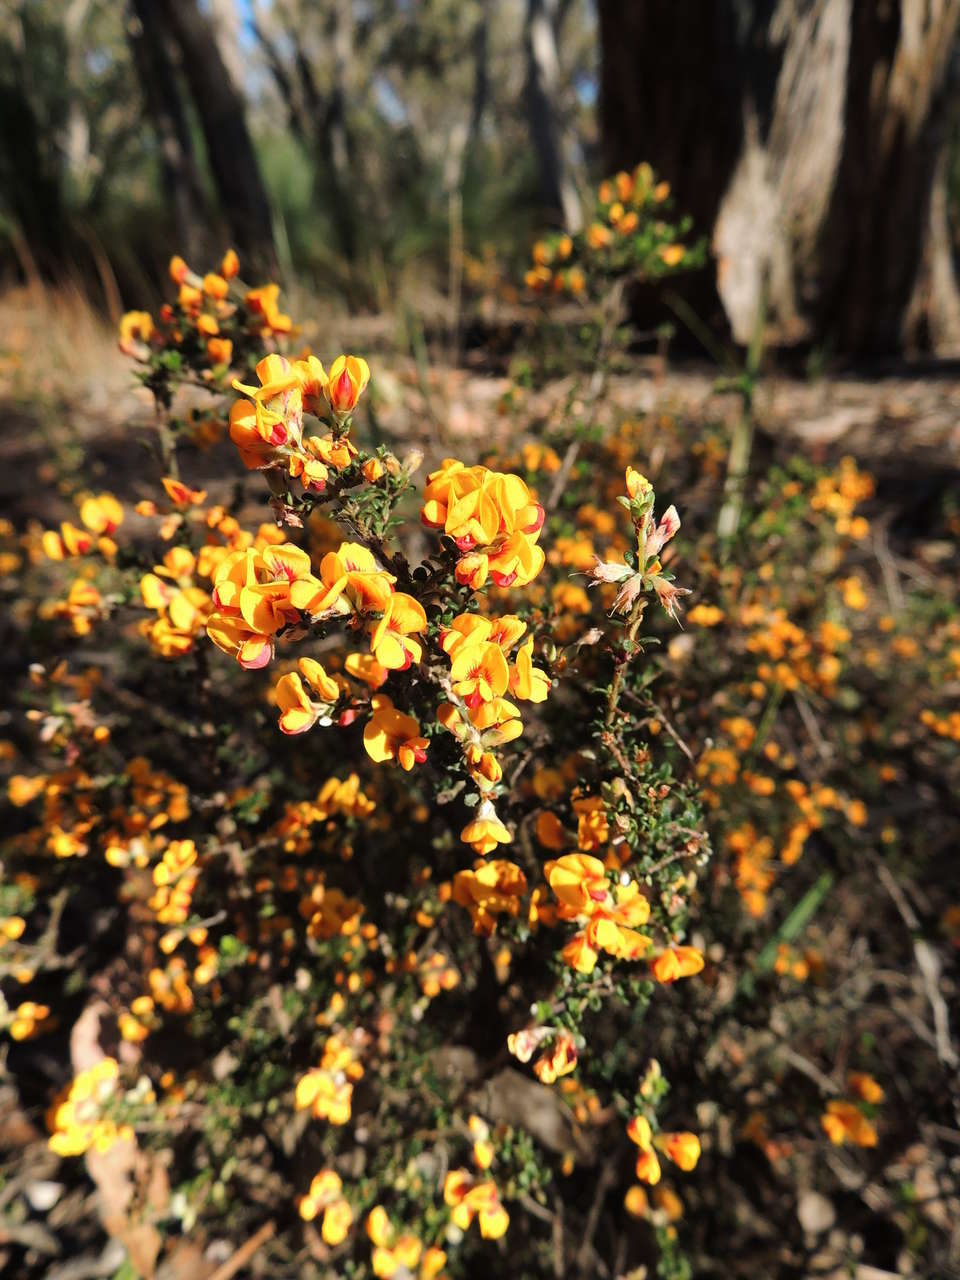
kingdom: Plantae
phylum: Tracheophyta
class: Magnoliopsida
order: Fabales
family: Fabaceae
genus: Pultenaea
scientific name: Pultenaea gunnii
